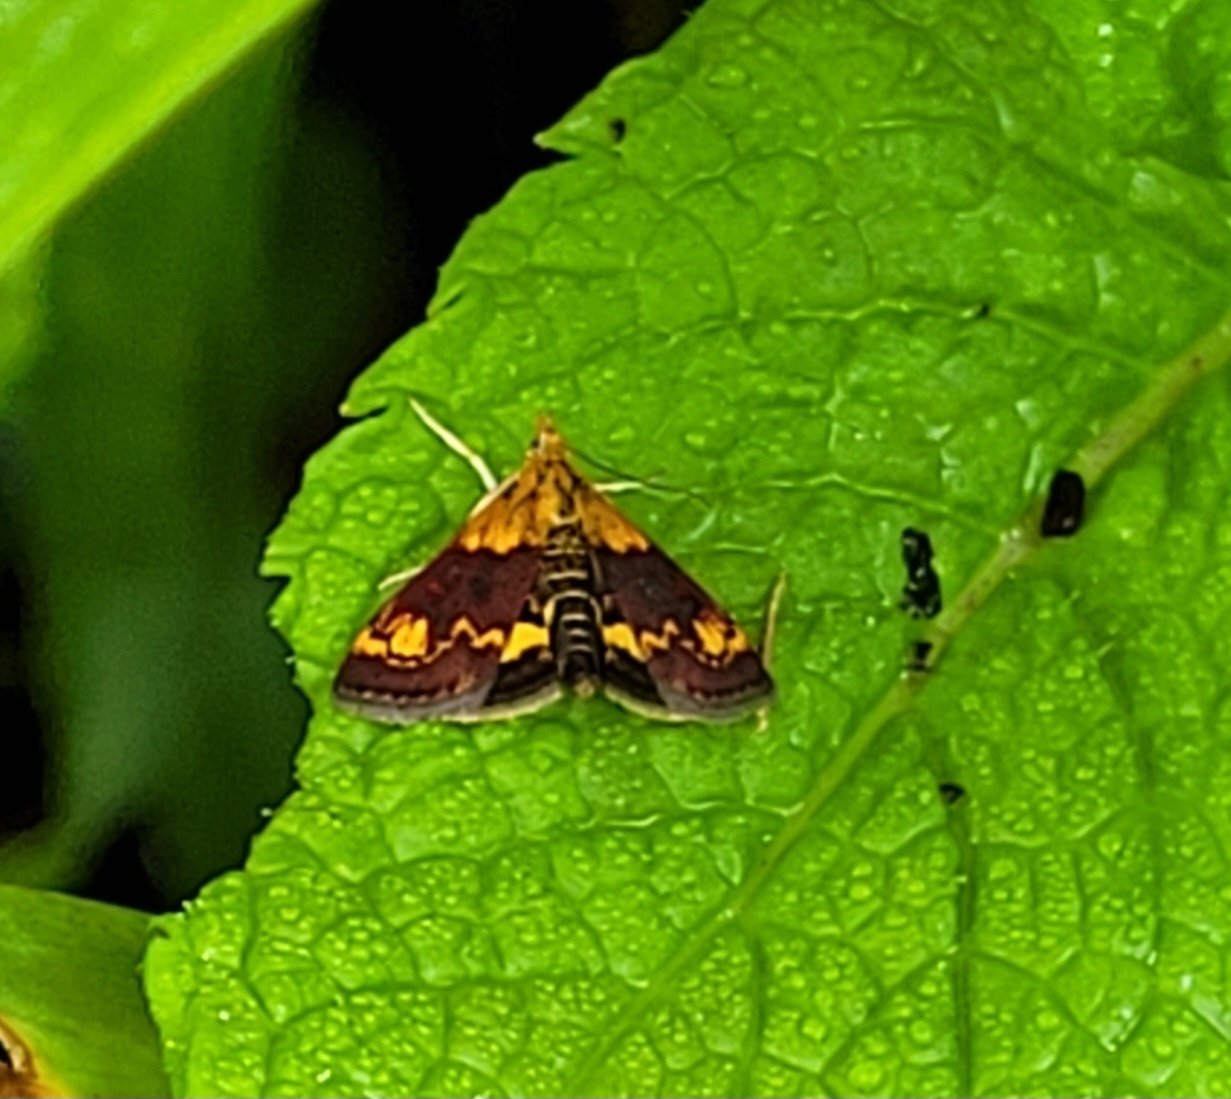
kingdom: Animalia
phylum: Arthropoda
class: Insecta
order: Lepidoptera
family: Crambidae
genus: Pyrausta
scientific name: Pyrausta orphisalis
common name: Orange mint moth
